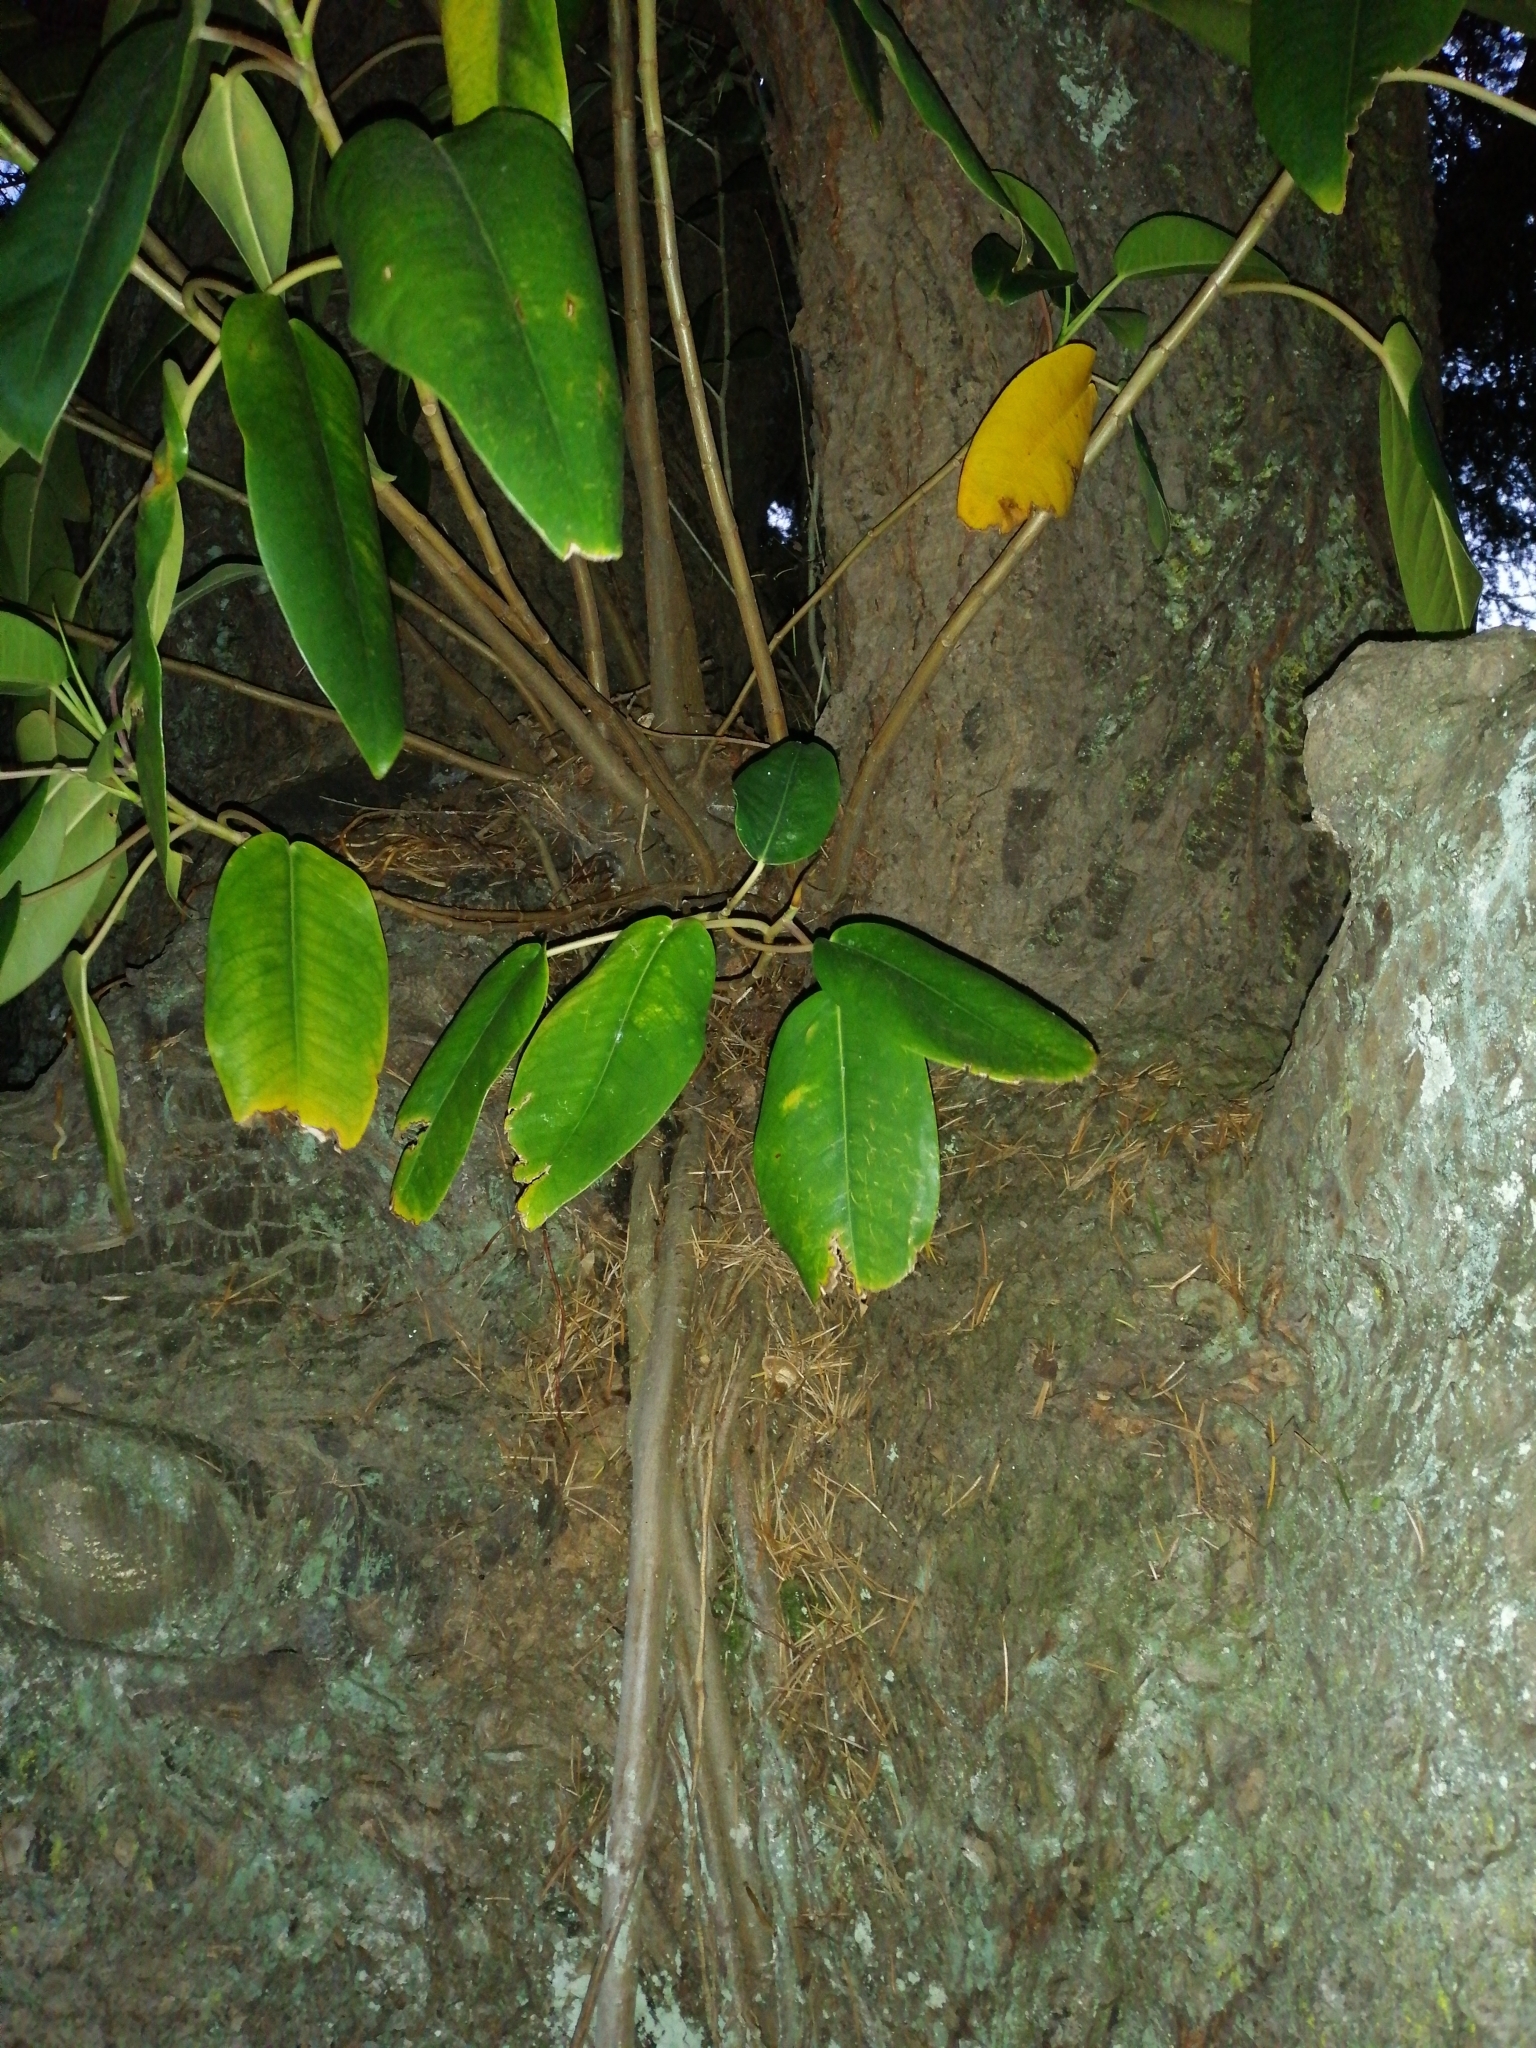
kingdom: Plantae
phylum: Tracheophyta
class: Magnoliopsida
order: Rosales
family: Moraceae
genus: Ficus
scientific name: Ficus macrophylla
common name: Moreton bay fig
